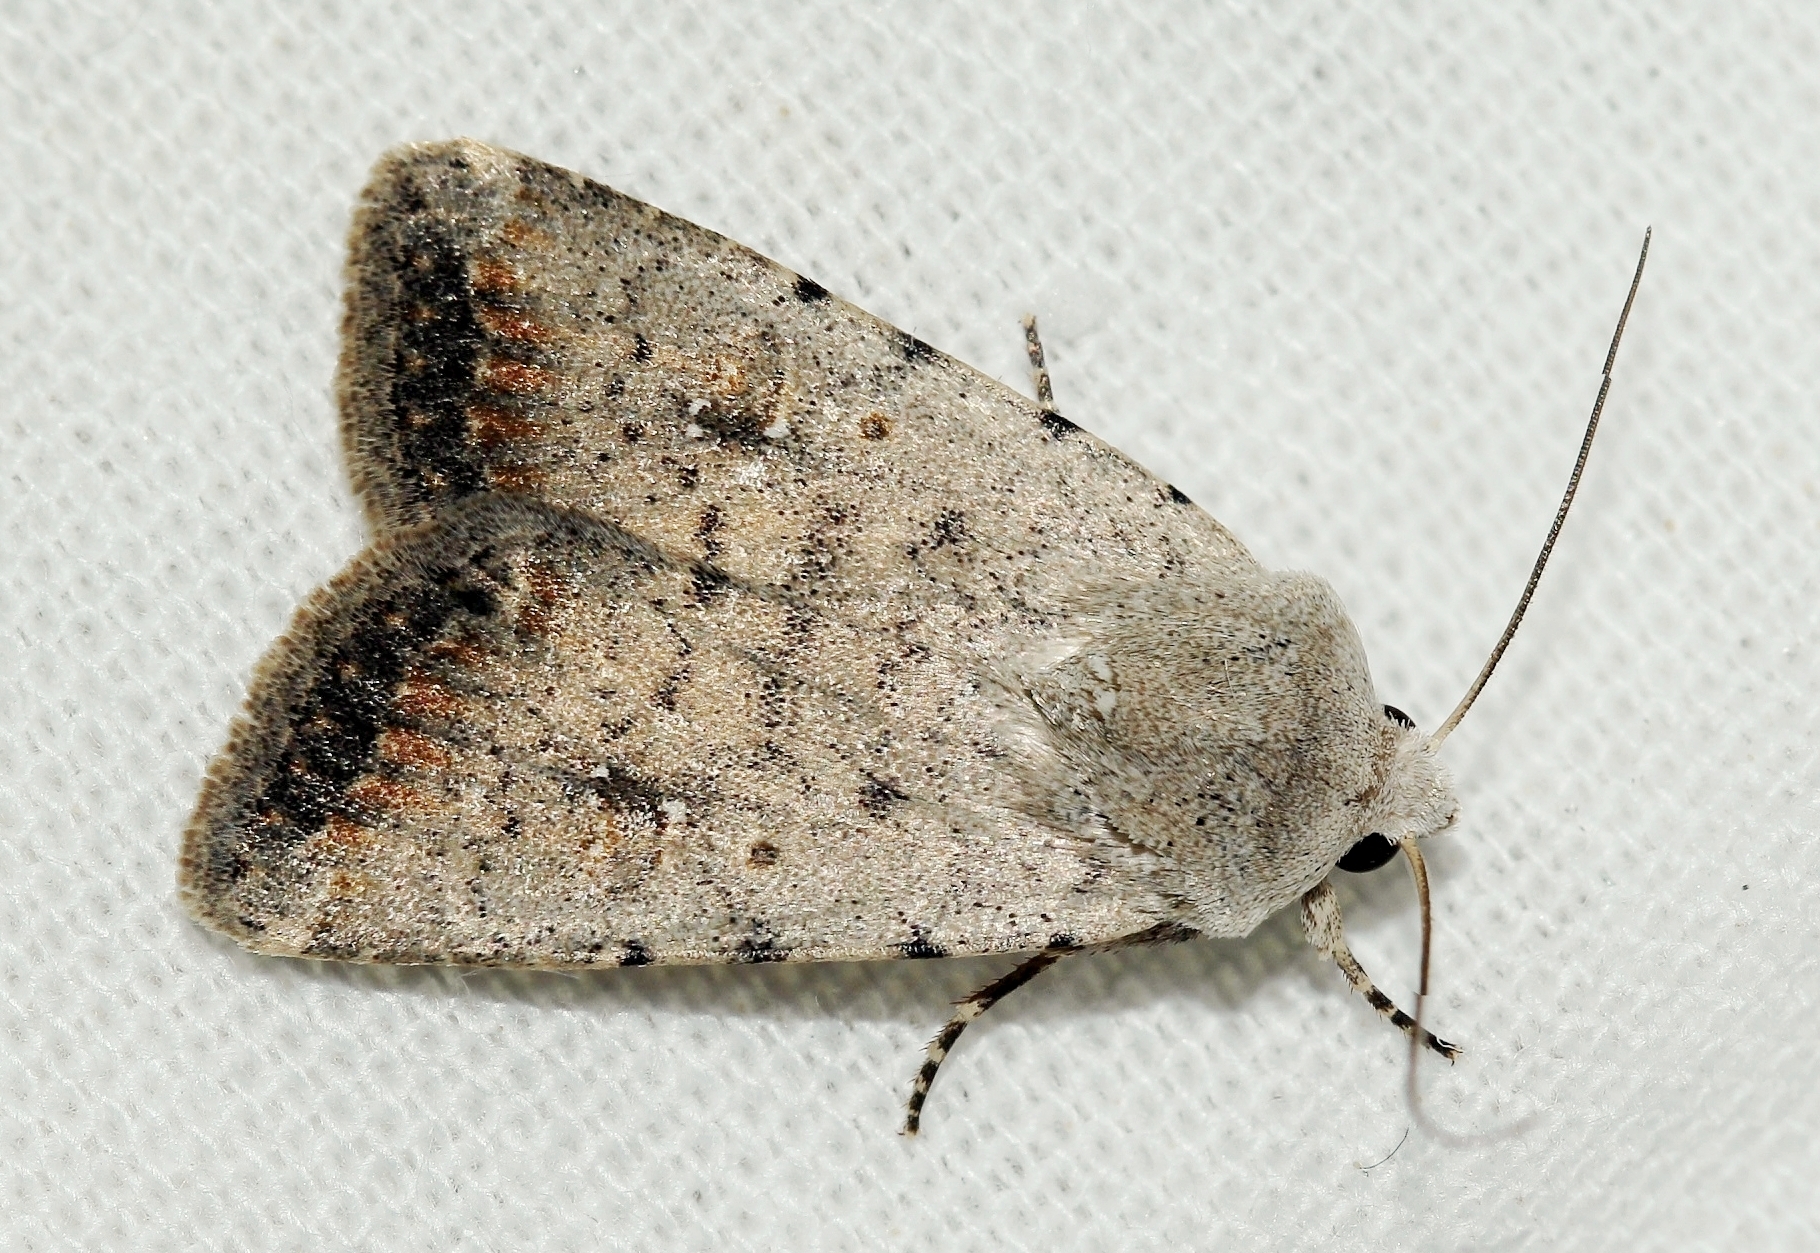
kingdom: Animalia
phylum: Arthropoda
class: Insecta
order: Lepidoptera
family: Noctuidae
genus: Caradrina
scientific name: Caradrina albina
